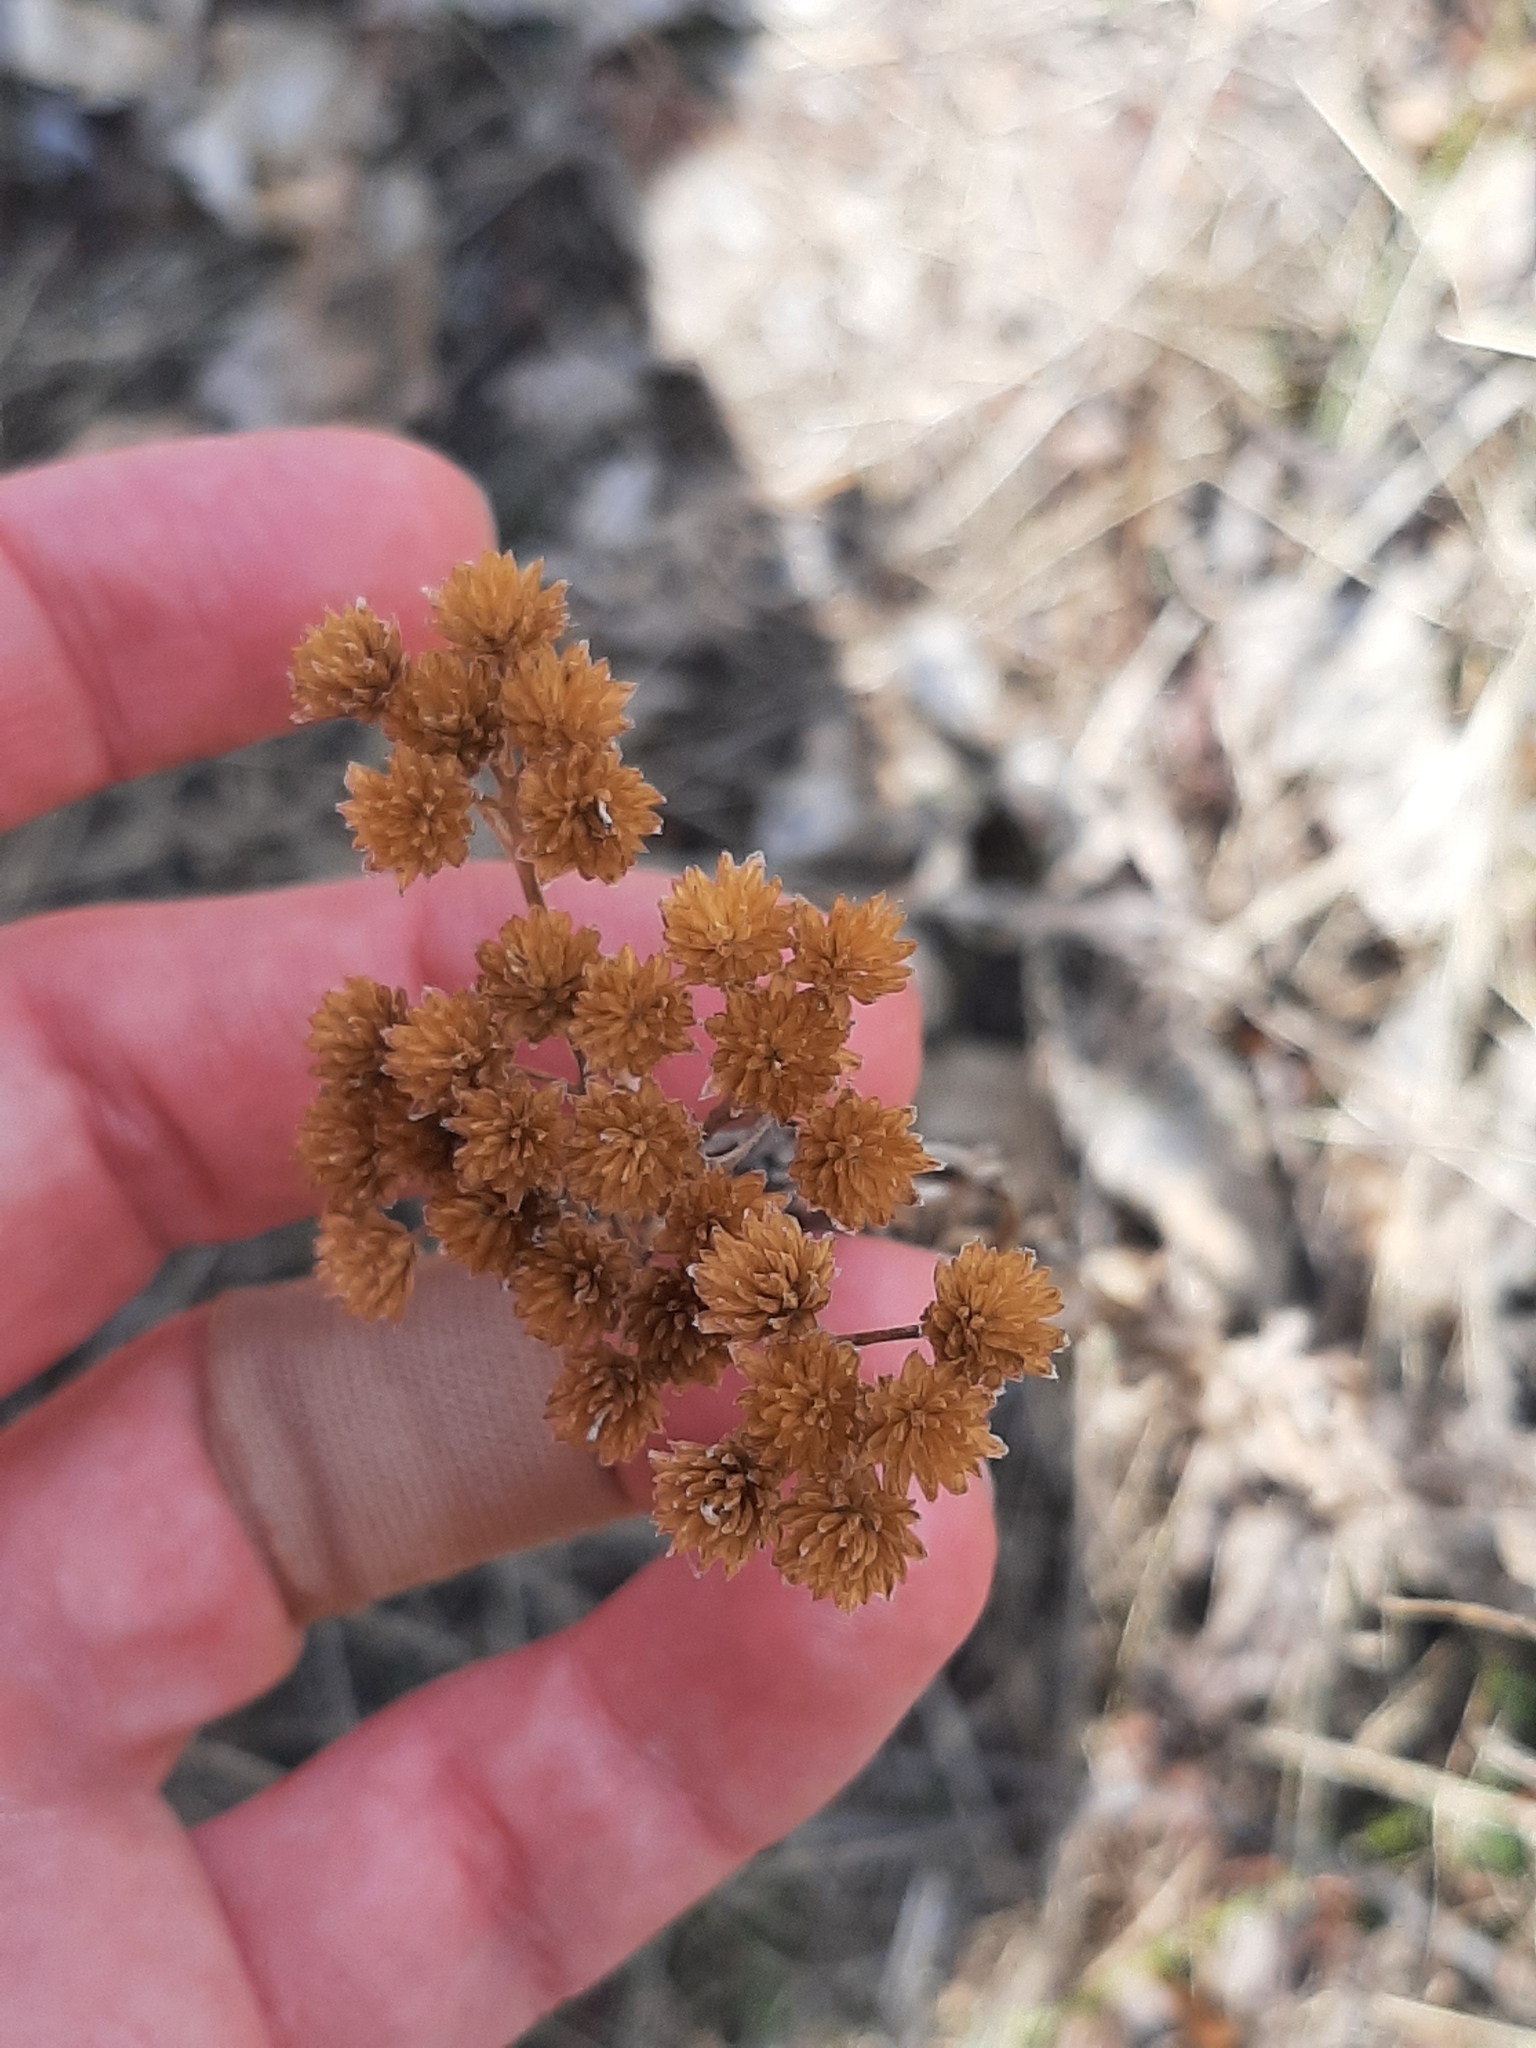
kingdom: Plantae
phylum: Tracheophyta
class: Magnoliopsida
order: Asterales
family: Asteraceae
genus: Achillea
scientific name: Achillea alpina
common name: Siberian yarrow
